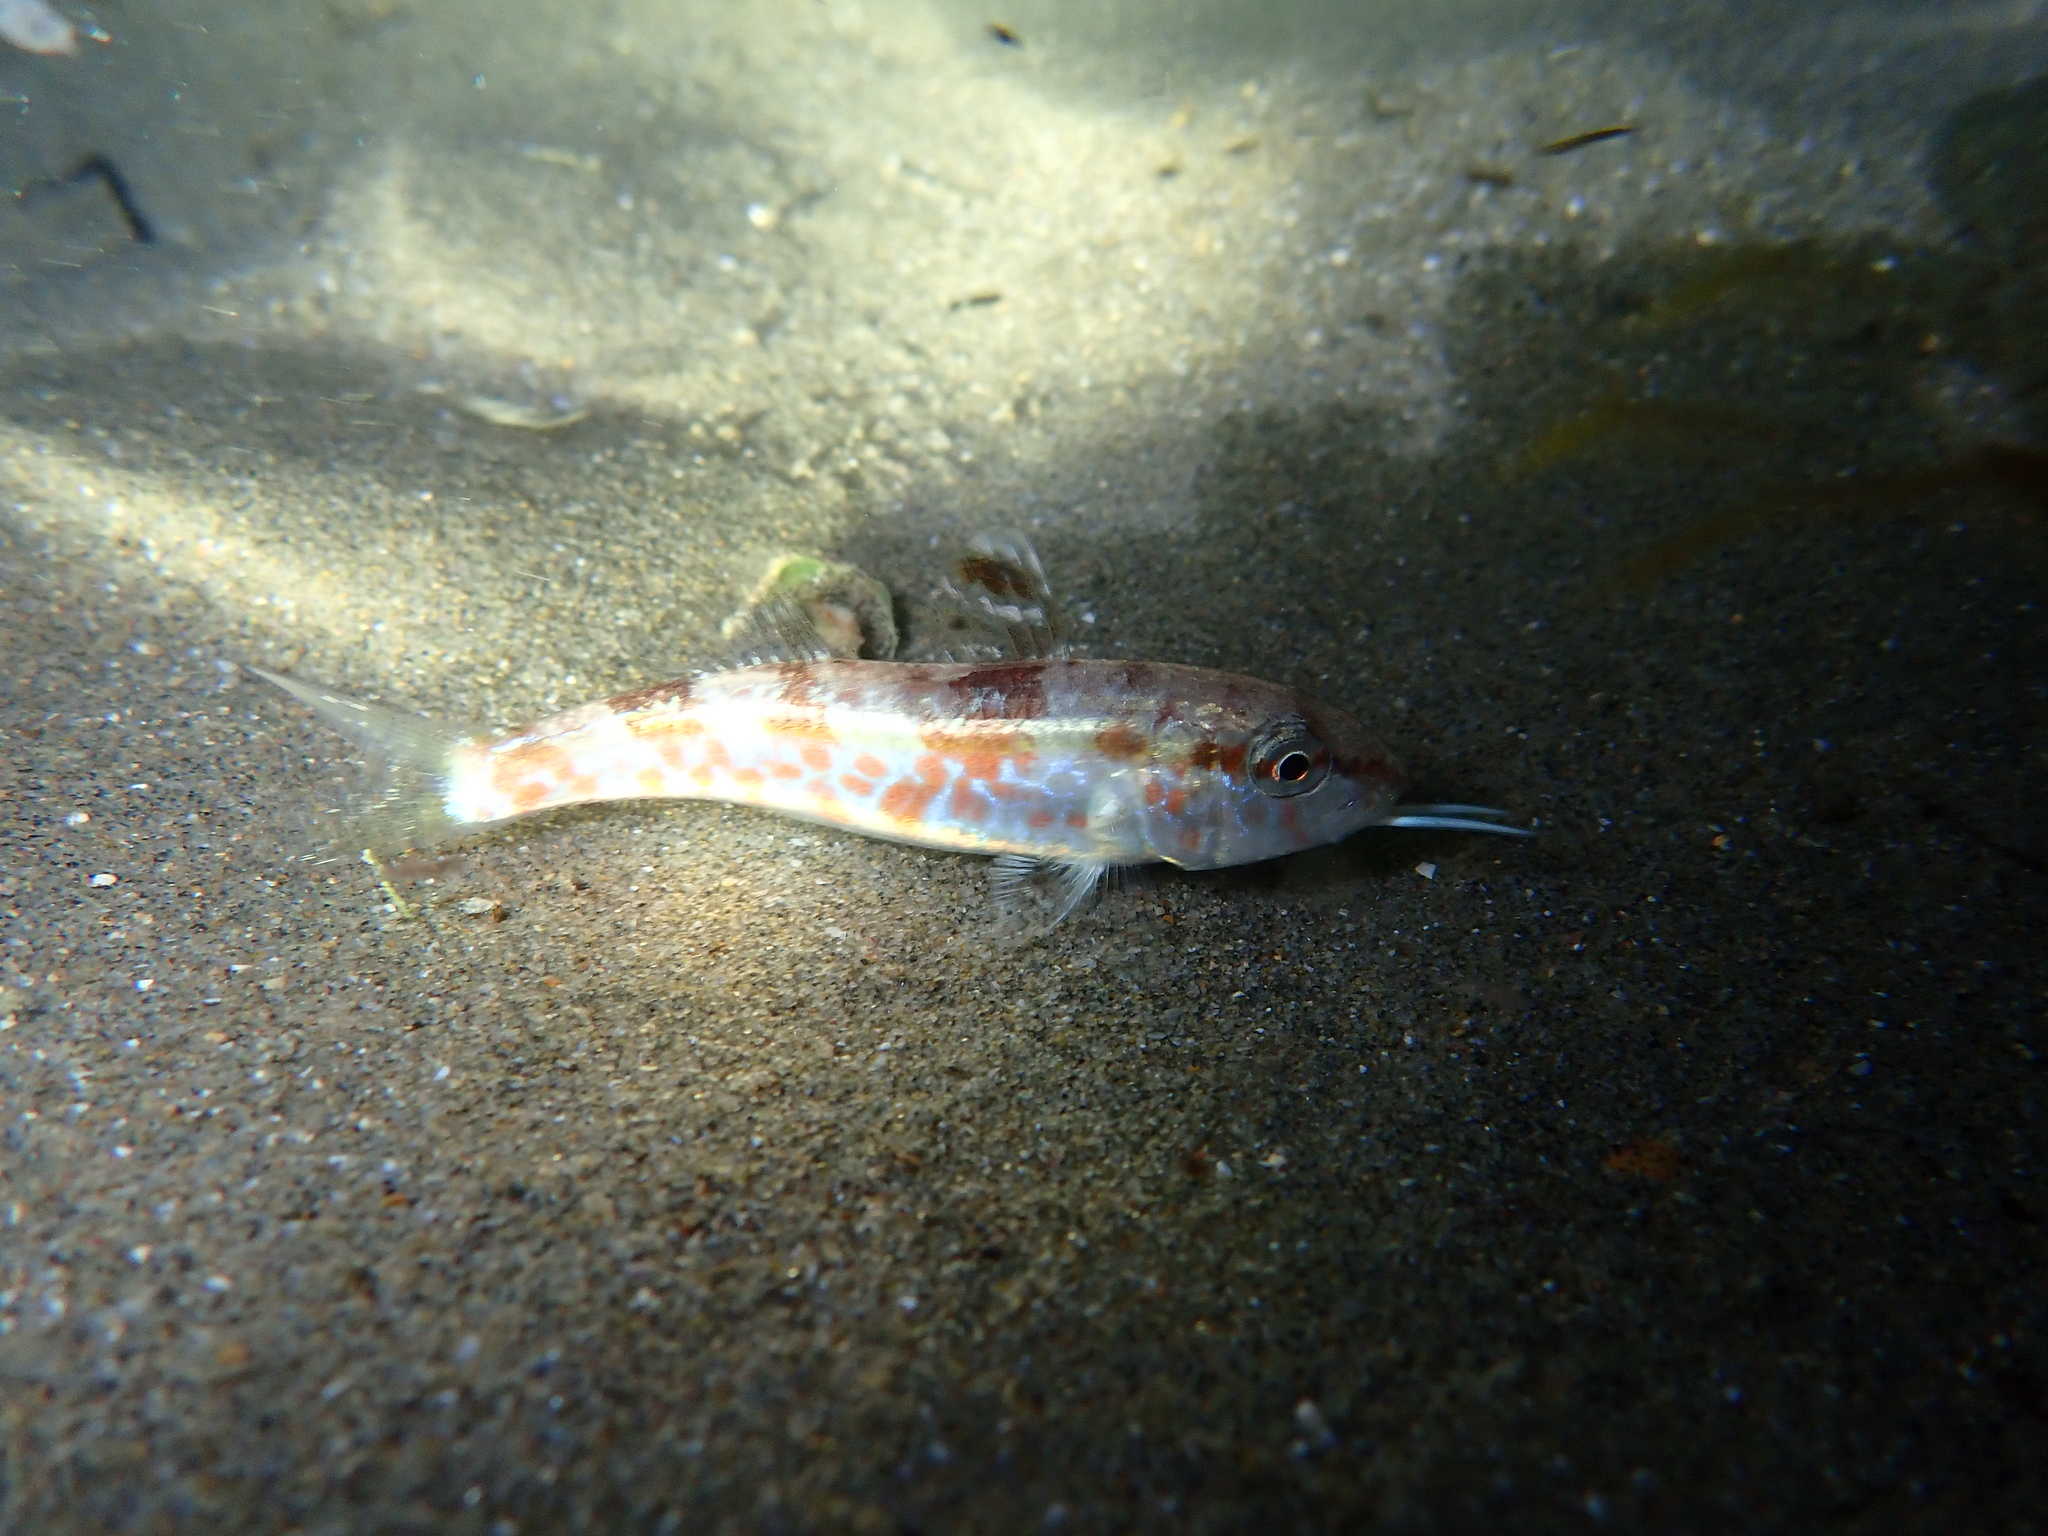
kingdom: Animalia
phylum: Chordata
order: Perciformes
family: Mullidae
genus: Mullus
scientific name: Mullus surmuletus
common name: Red mullet
